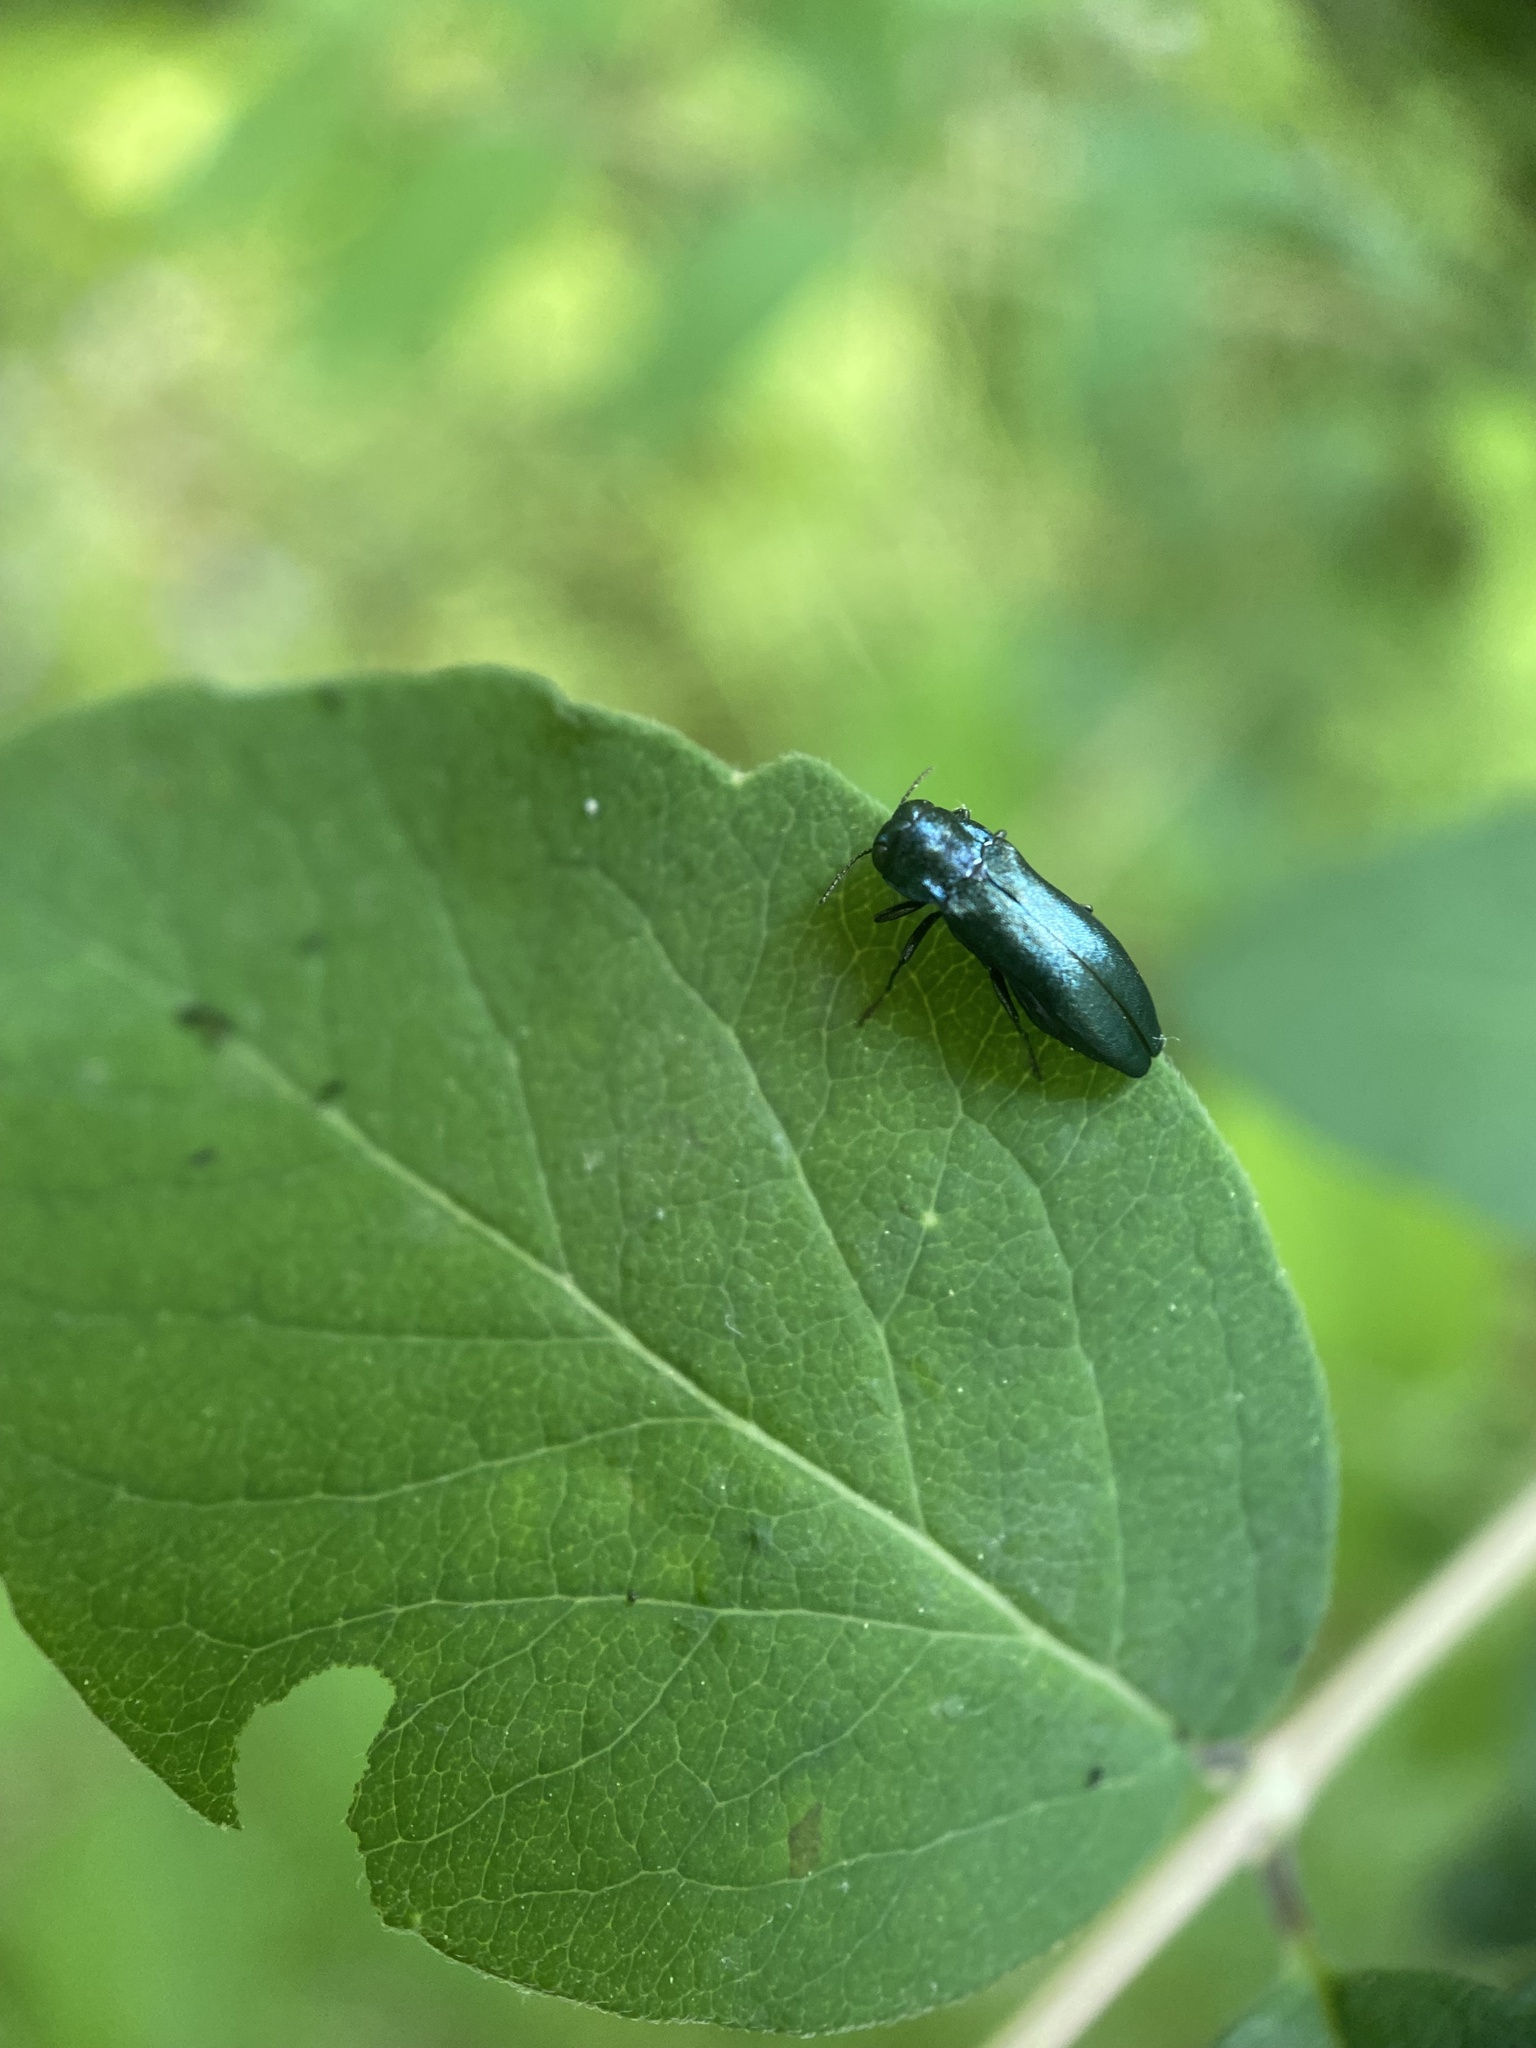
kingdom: Animalia
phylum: Arthropoda
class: Insecta
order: Coleoptera
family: Buprestidae
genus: Agrilus
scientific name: Agrilus cyanescens
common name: Bluish borer beetle
